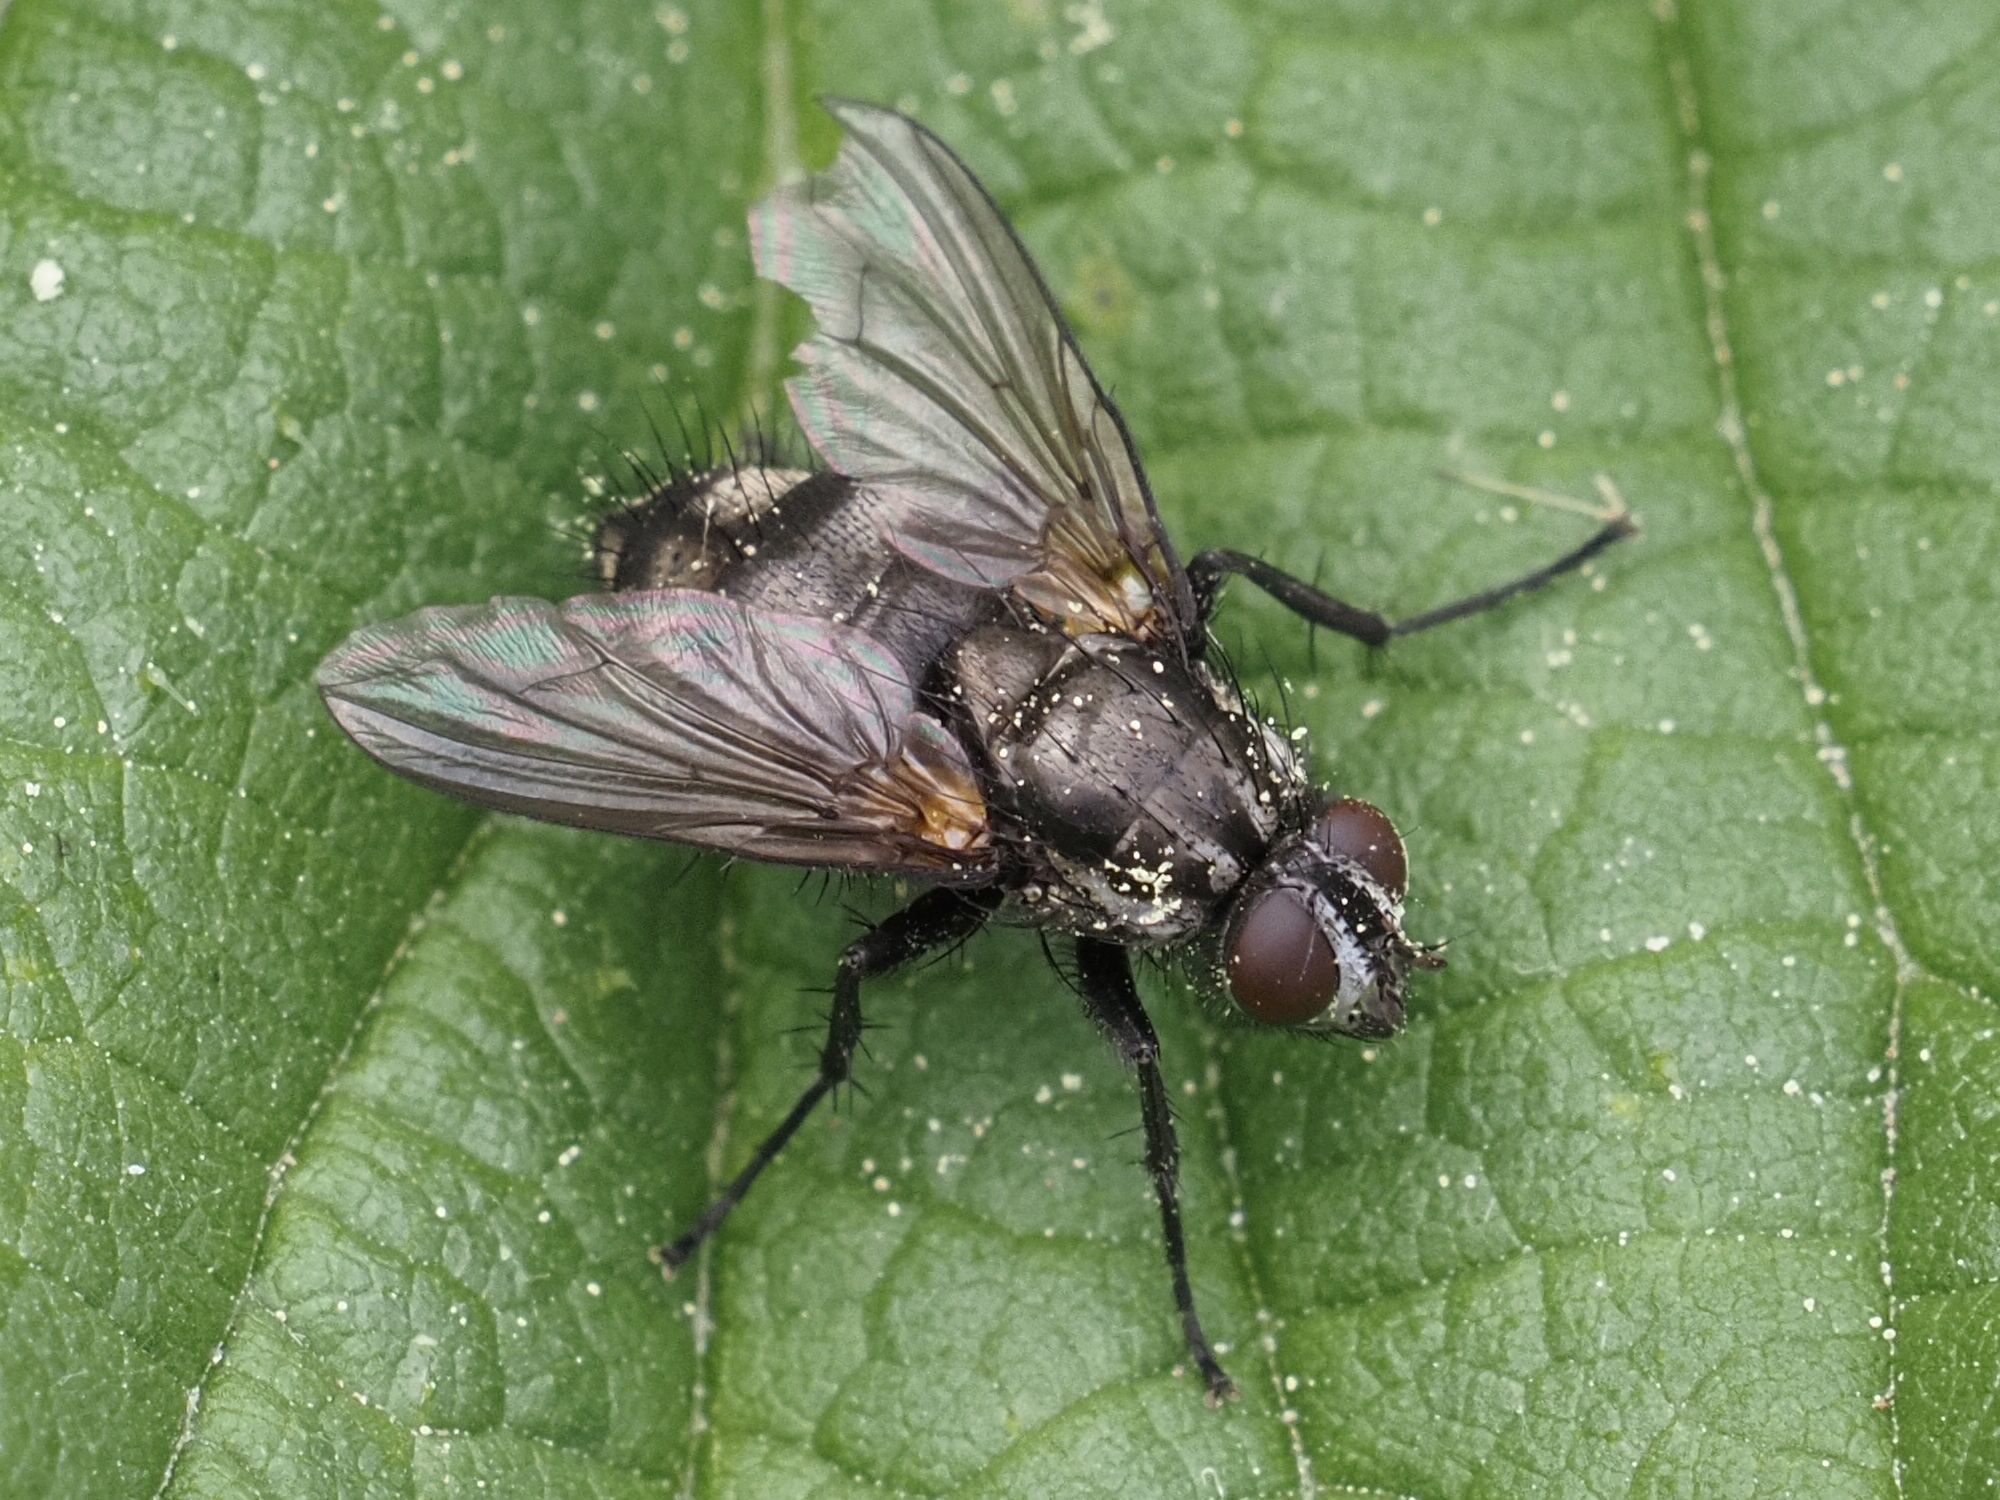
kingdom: Animalia
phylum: Arthropoda
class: Insecta
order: Diptera
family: Calliphoridae
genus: Rhinomorinia
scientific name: Rhinomorinia sarcophagina
